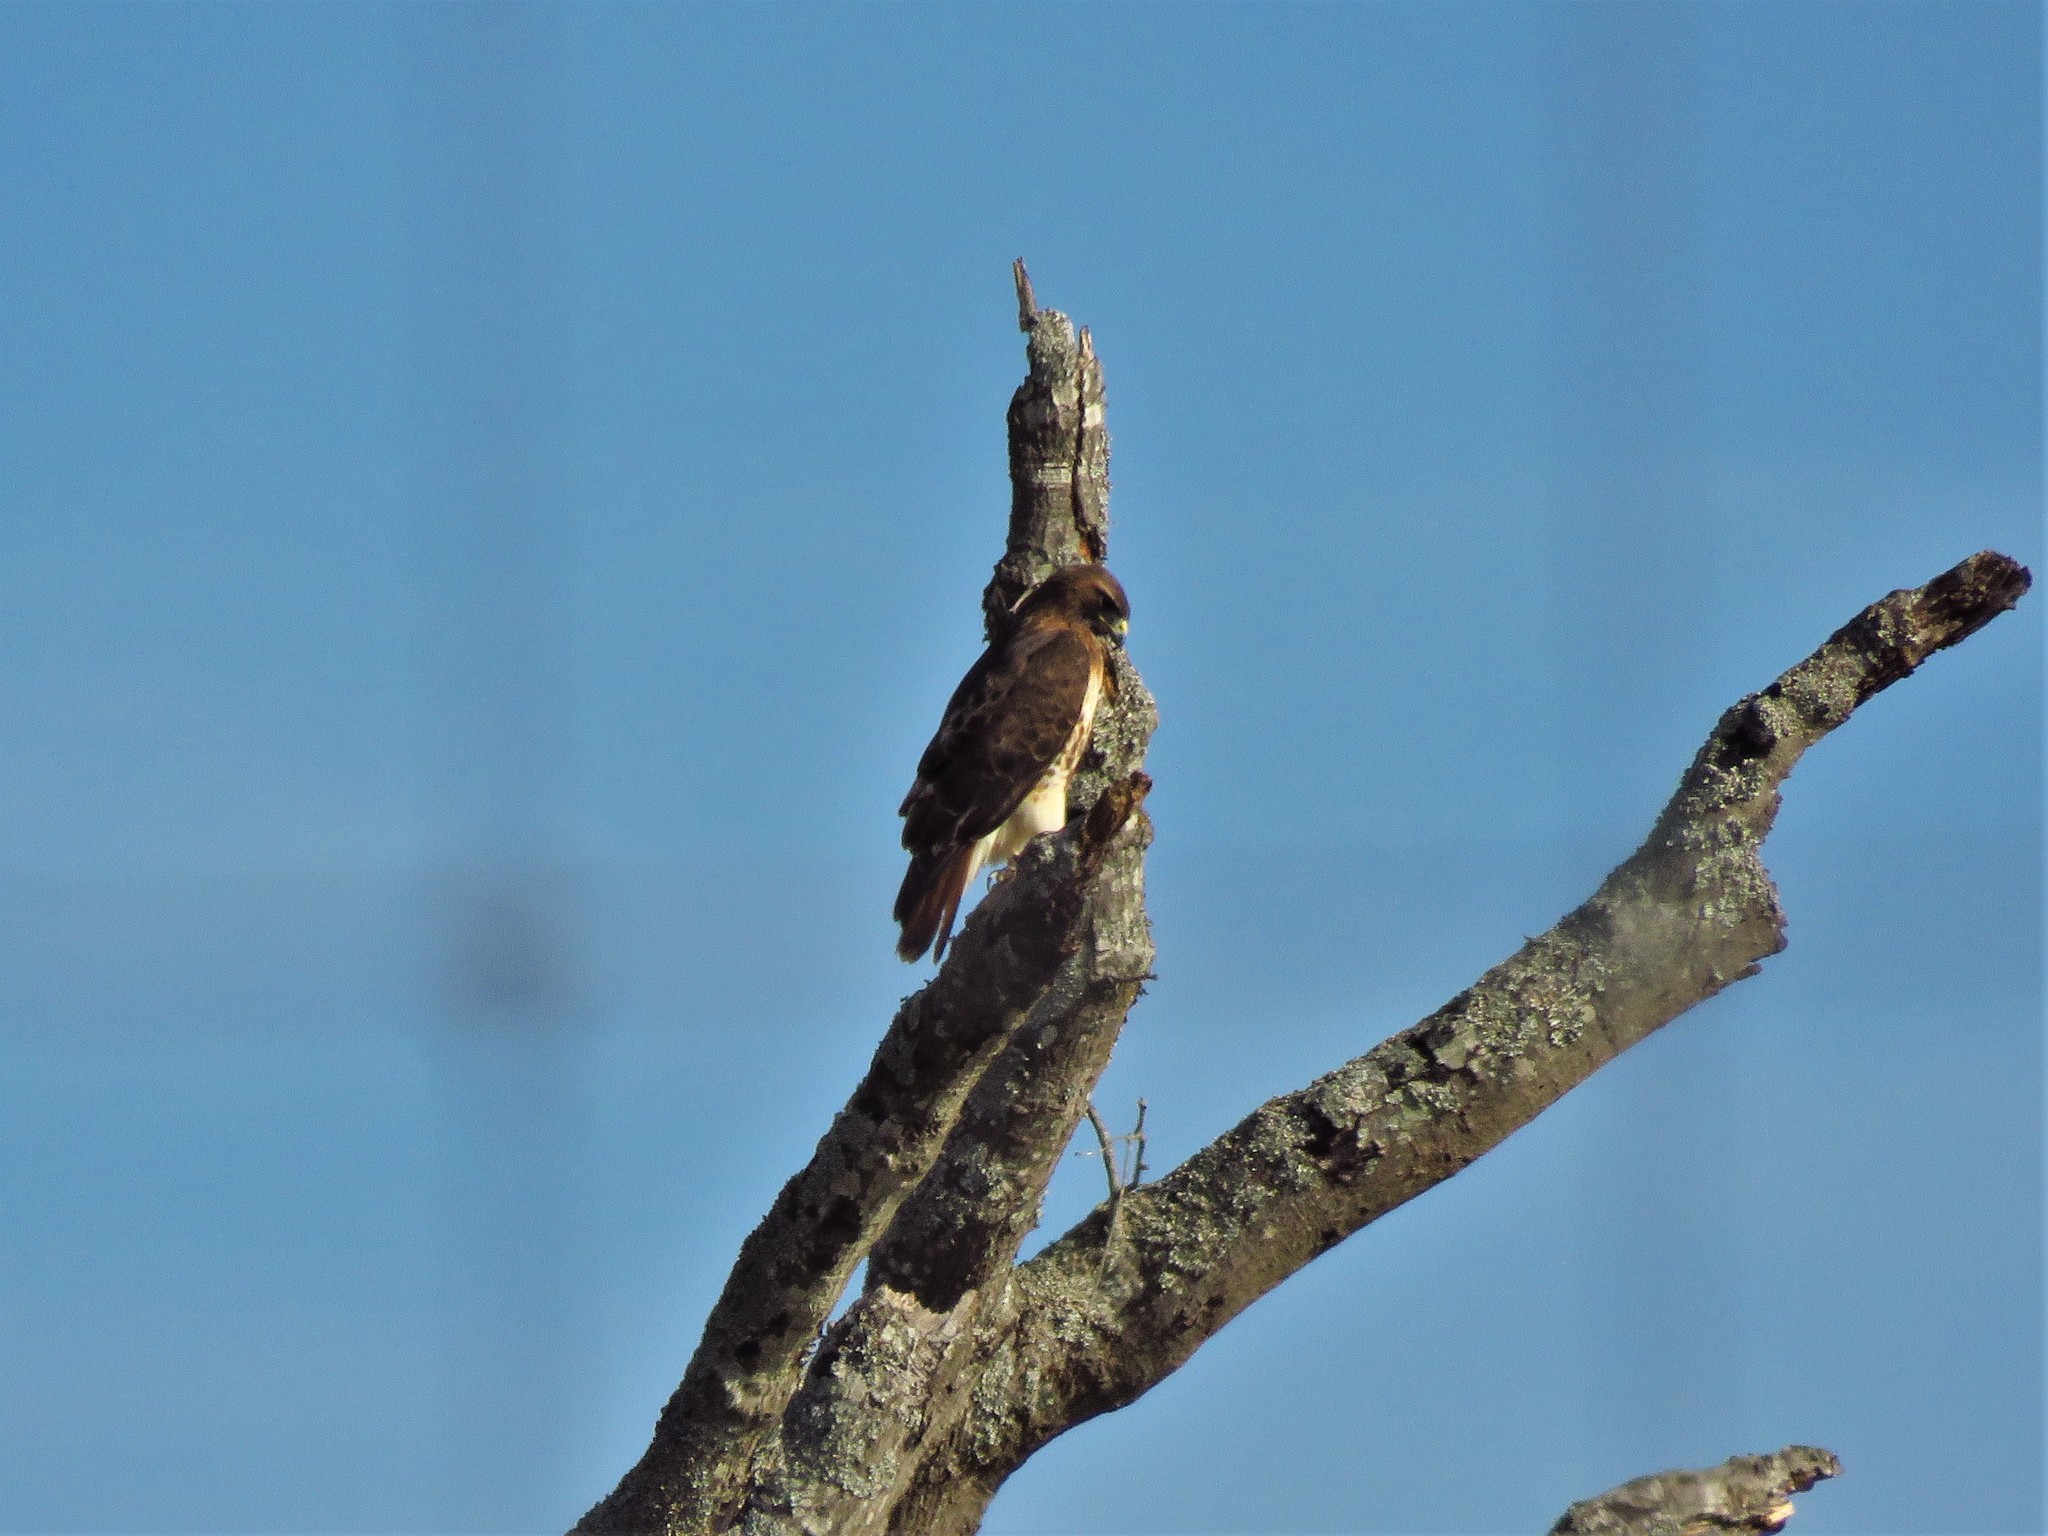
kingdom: Animalia
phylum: Chordata
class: Aves
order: Accipitriformes
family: Accipitridae
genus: Buteo
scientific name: Buteo jamaicensis
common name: Red-tailed hawk
